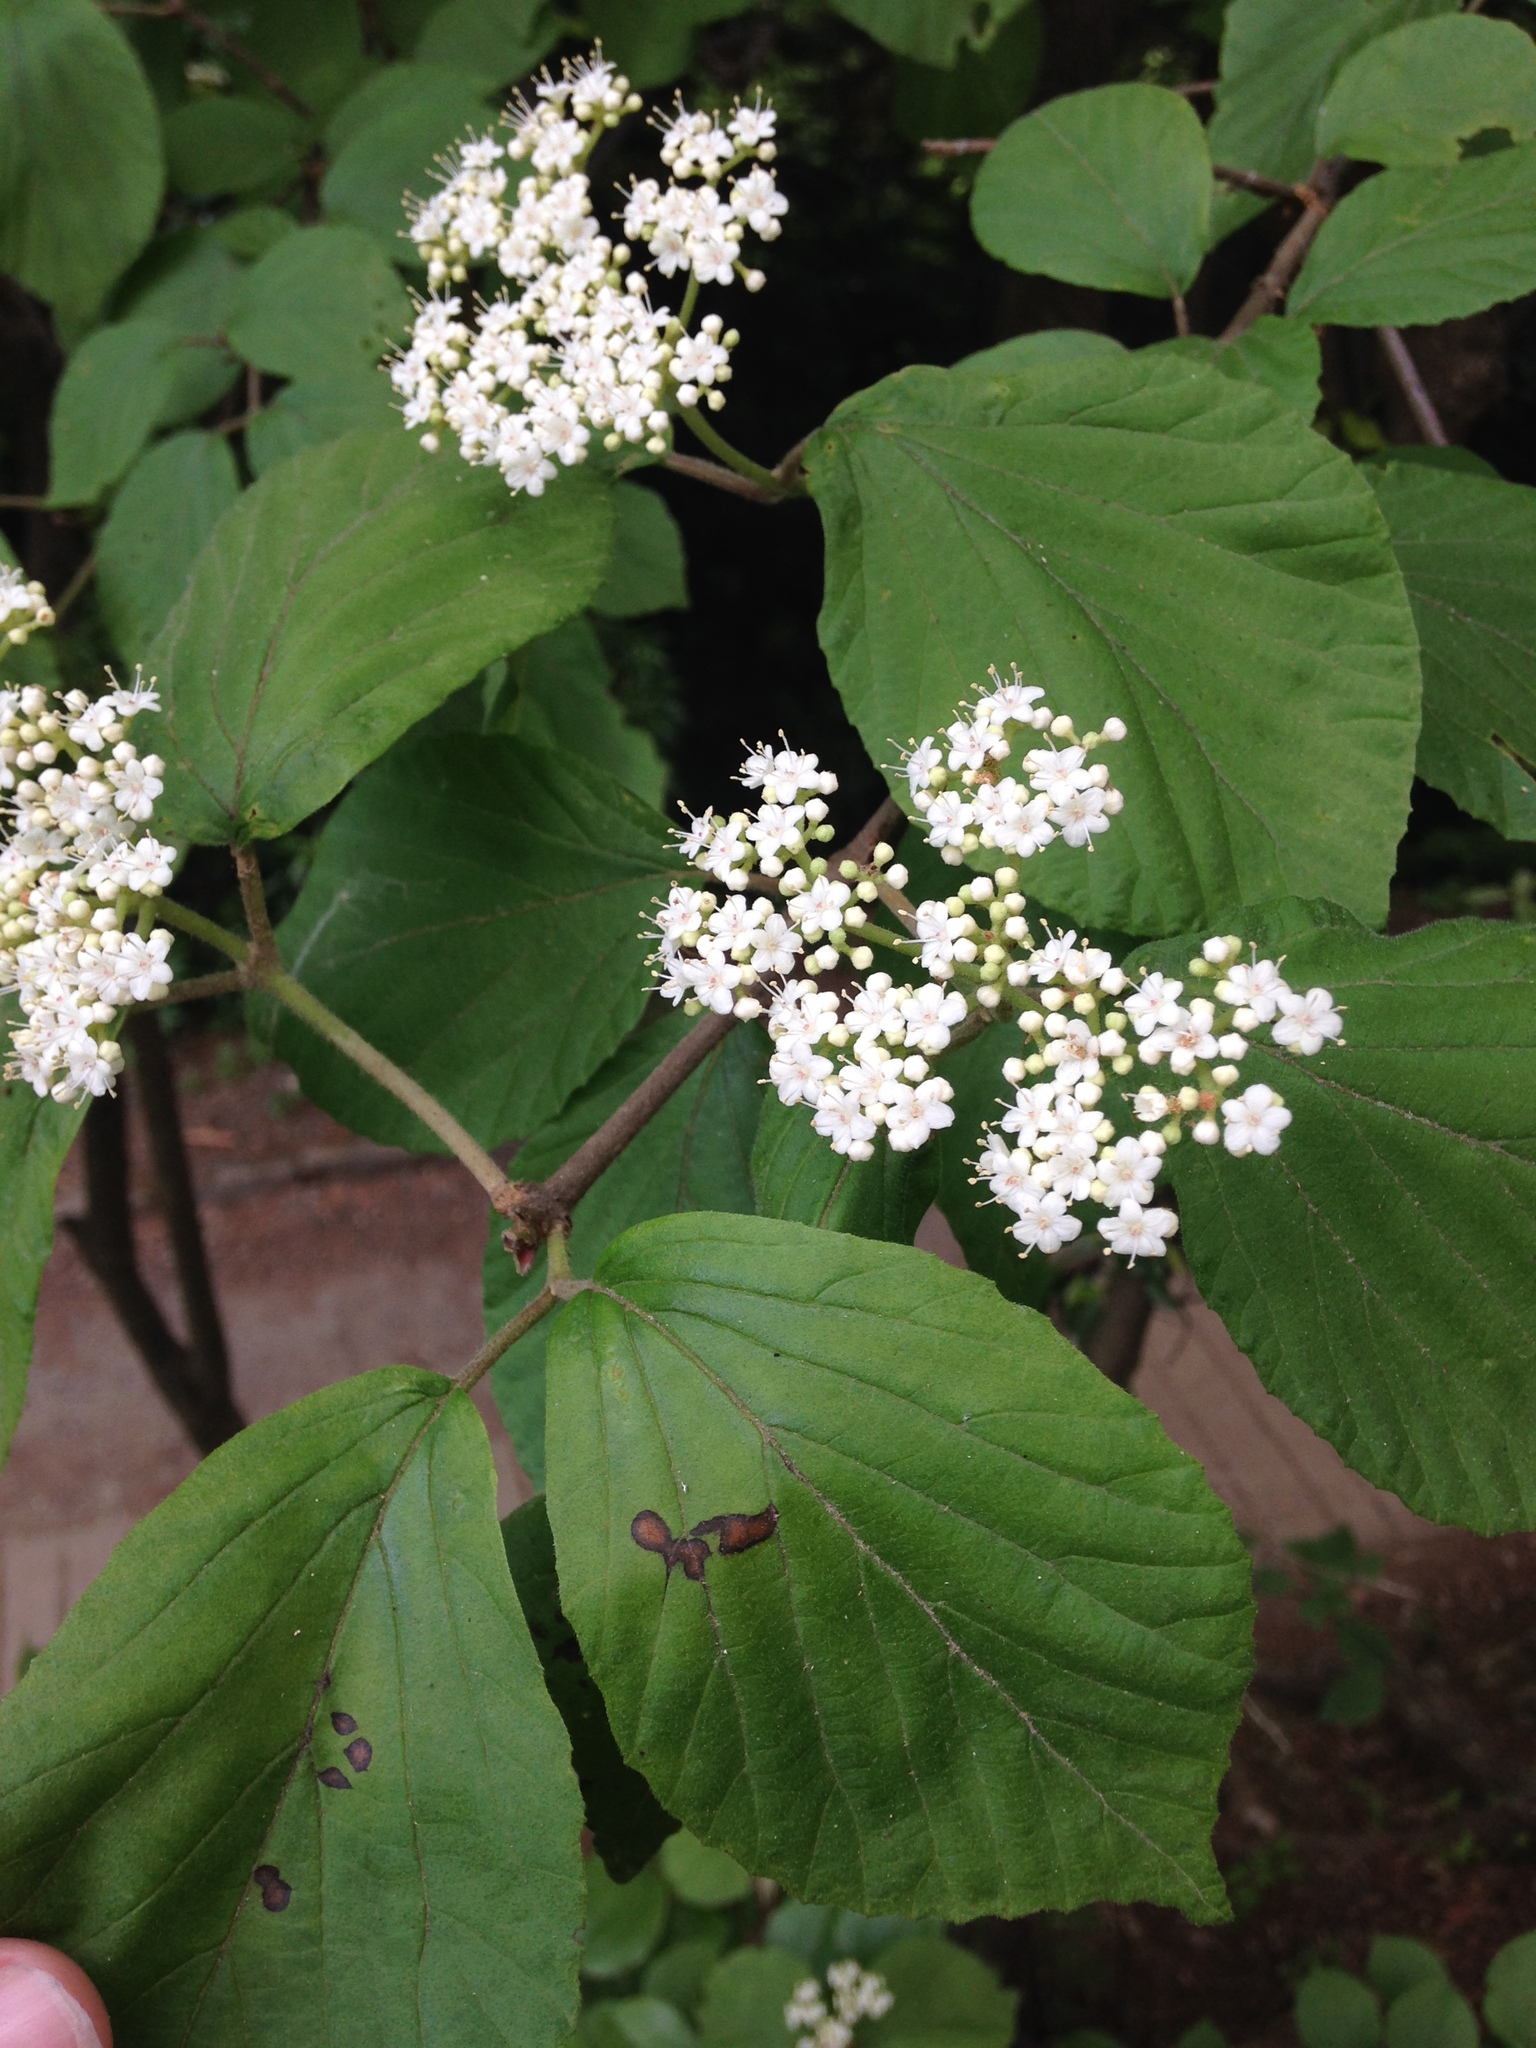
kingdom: Plantae
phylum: Tracheophyta
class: Magnoliopsida
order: Dipsacales
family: Viburnaceae
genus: Viburnum
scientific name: Viburnum dilatatum
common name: Linden arrowwood
